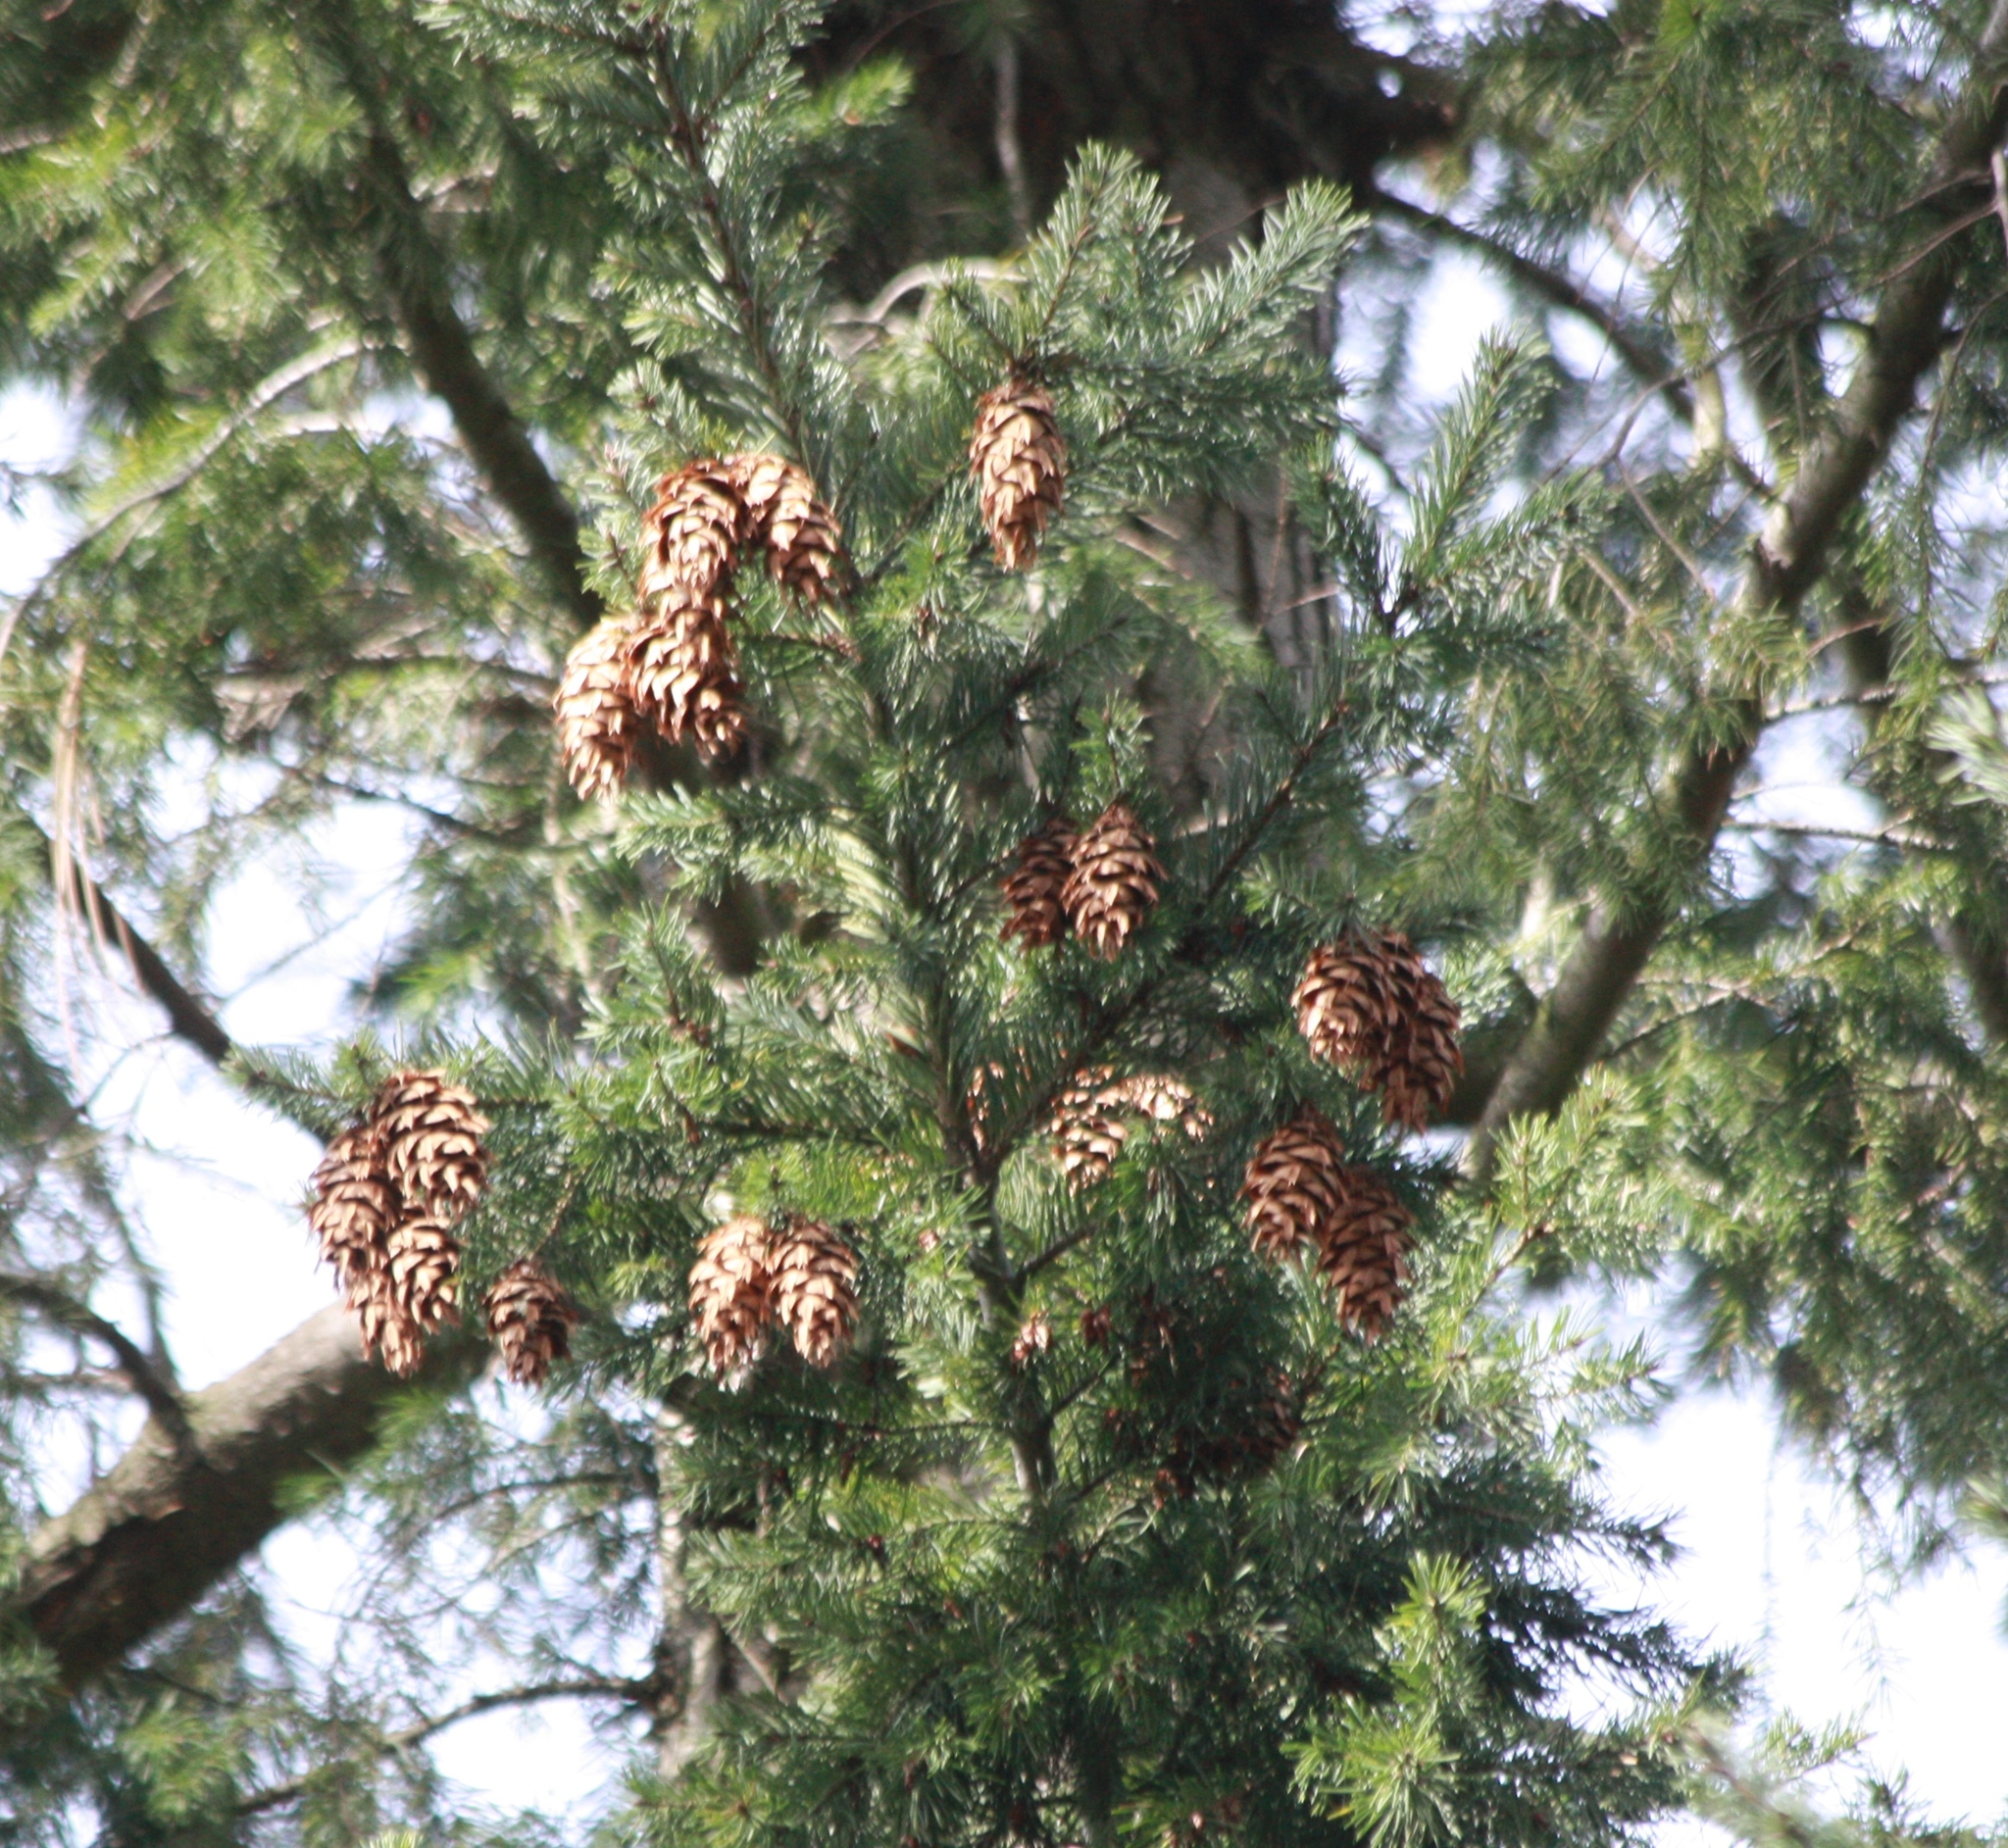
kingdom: Plantae
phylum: Tracheophyta
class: Pinopsida
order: Pinales
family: Pinaceae
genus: Pseudotsuga
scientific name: Pseudotsuga menziesii
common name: Douglas fir
